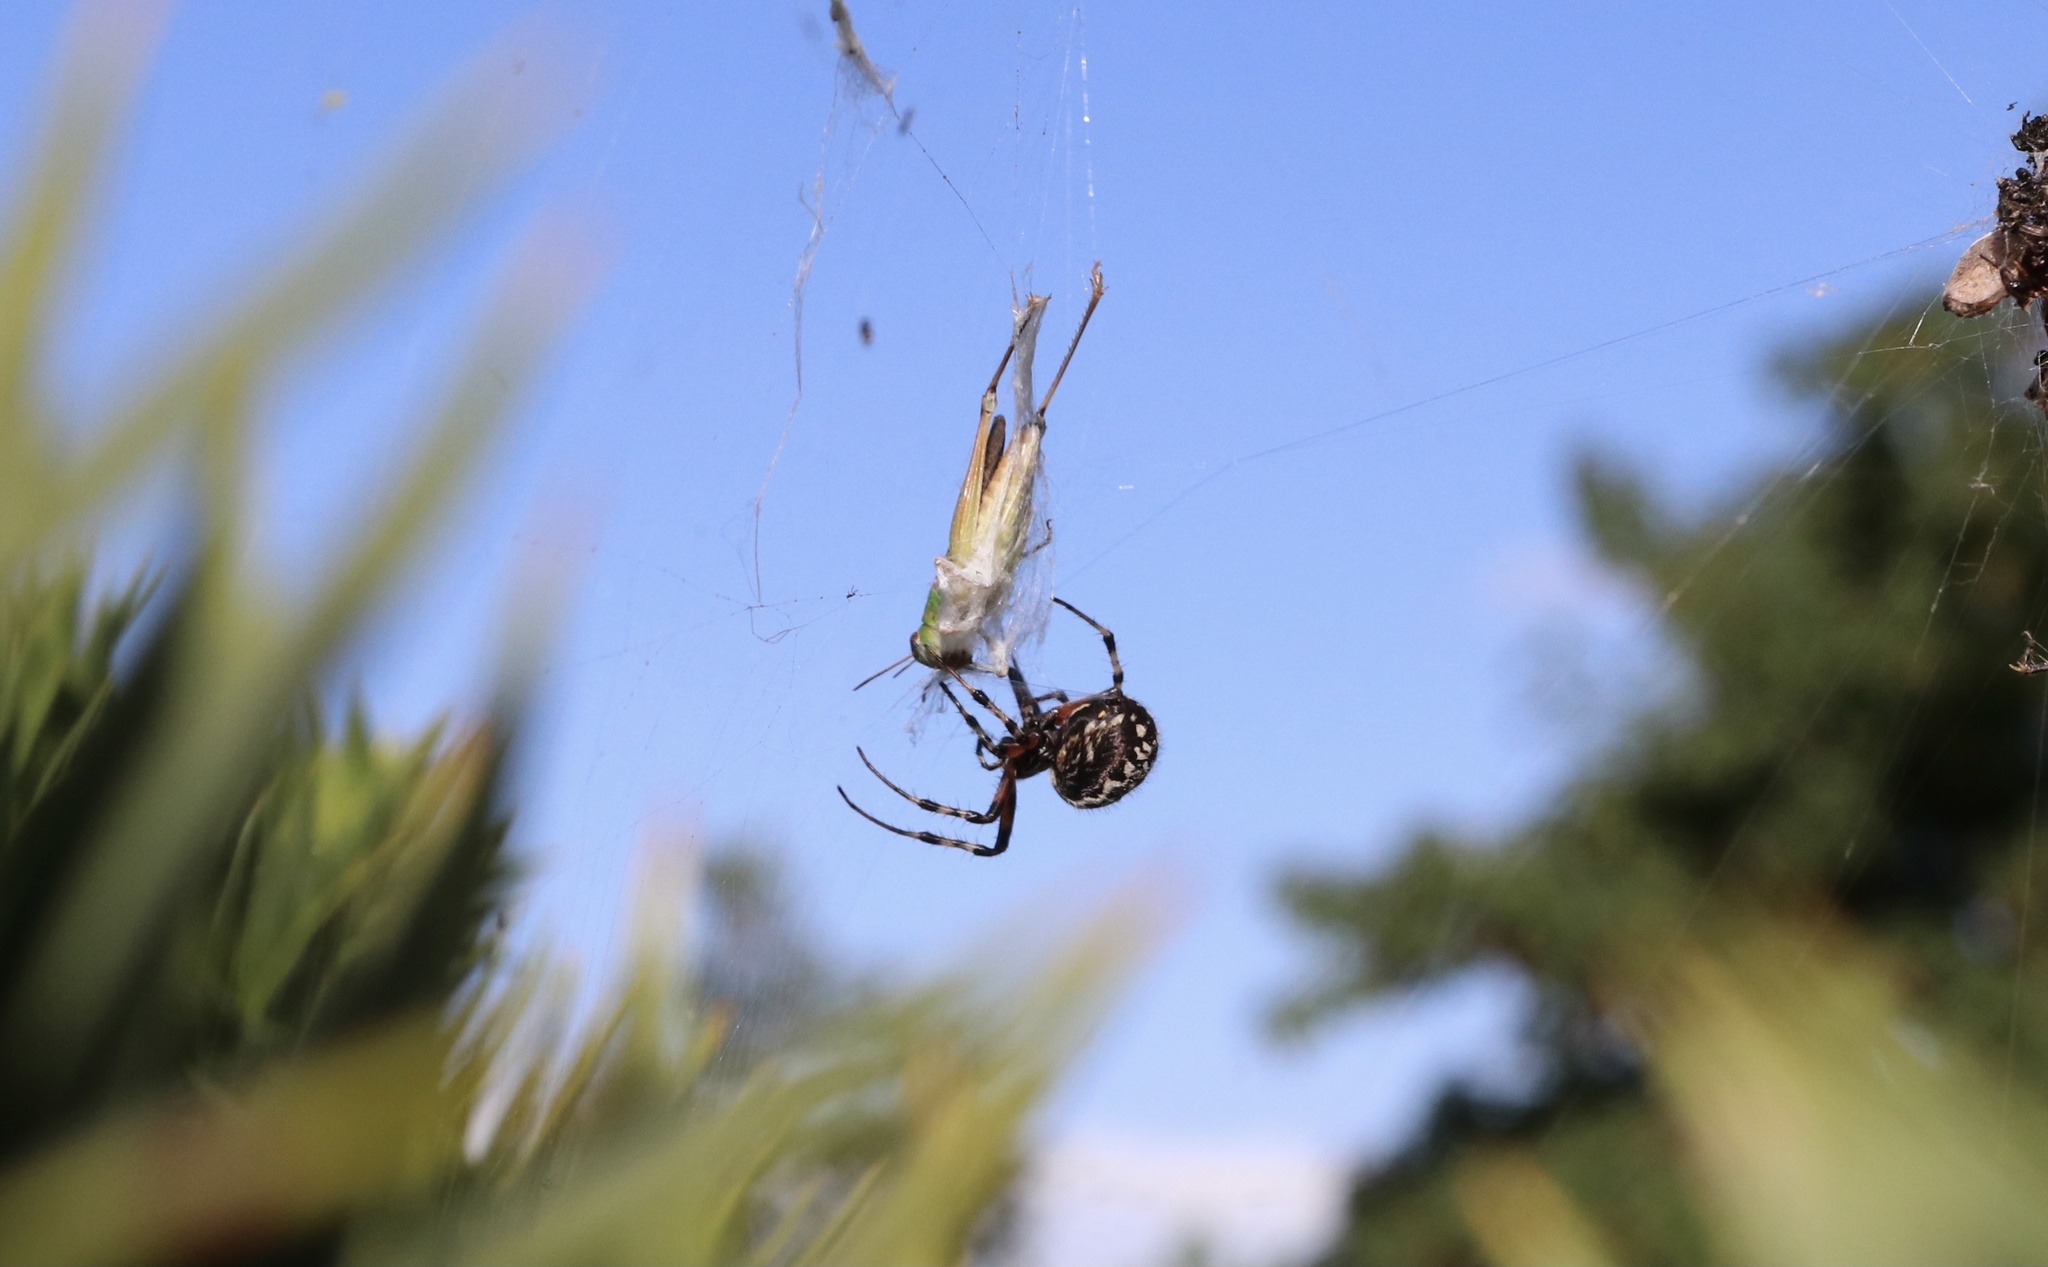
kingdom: Animalia
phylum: Arthropoda
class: Arachnida
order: Araneae
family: Araneidae
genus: Metepeira
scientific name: Metepeira
